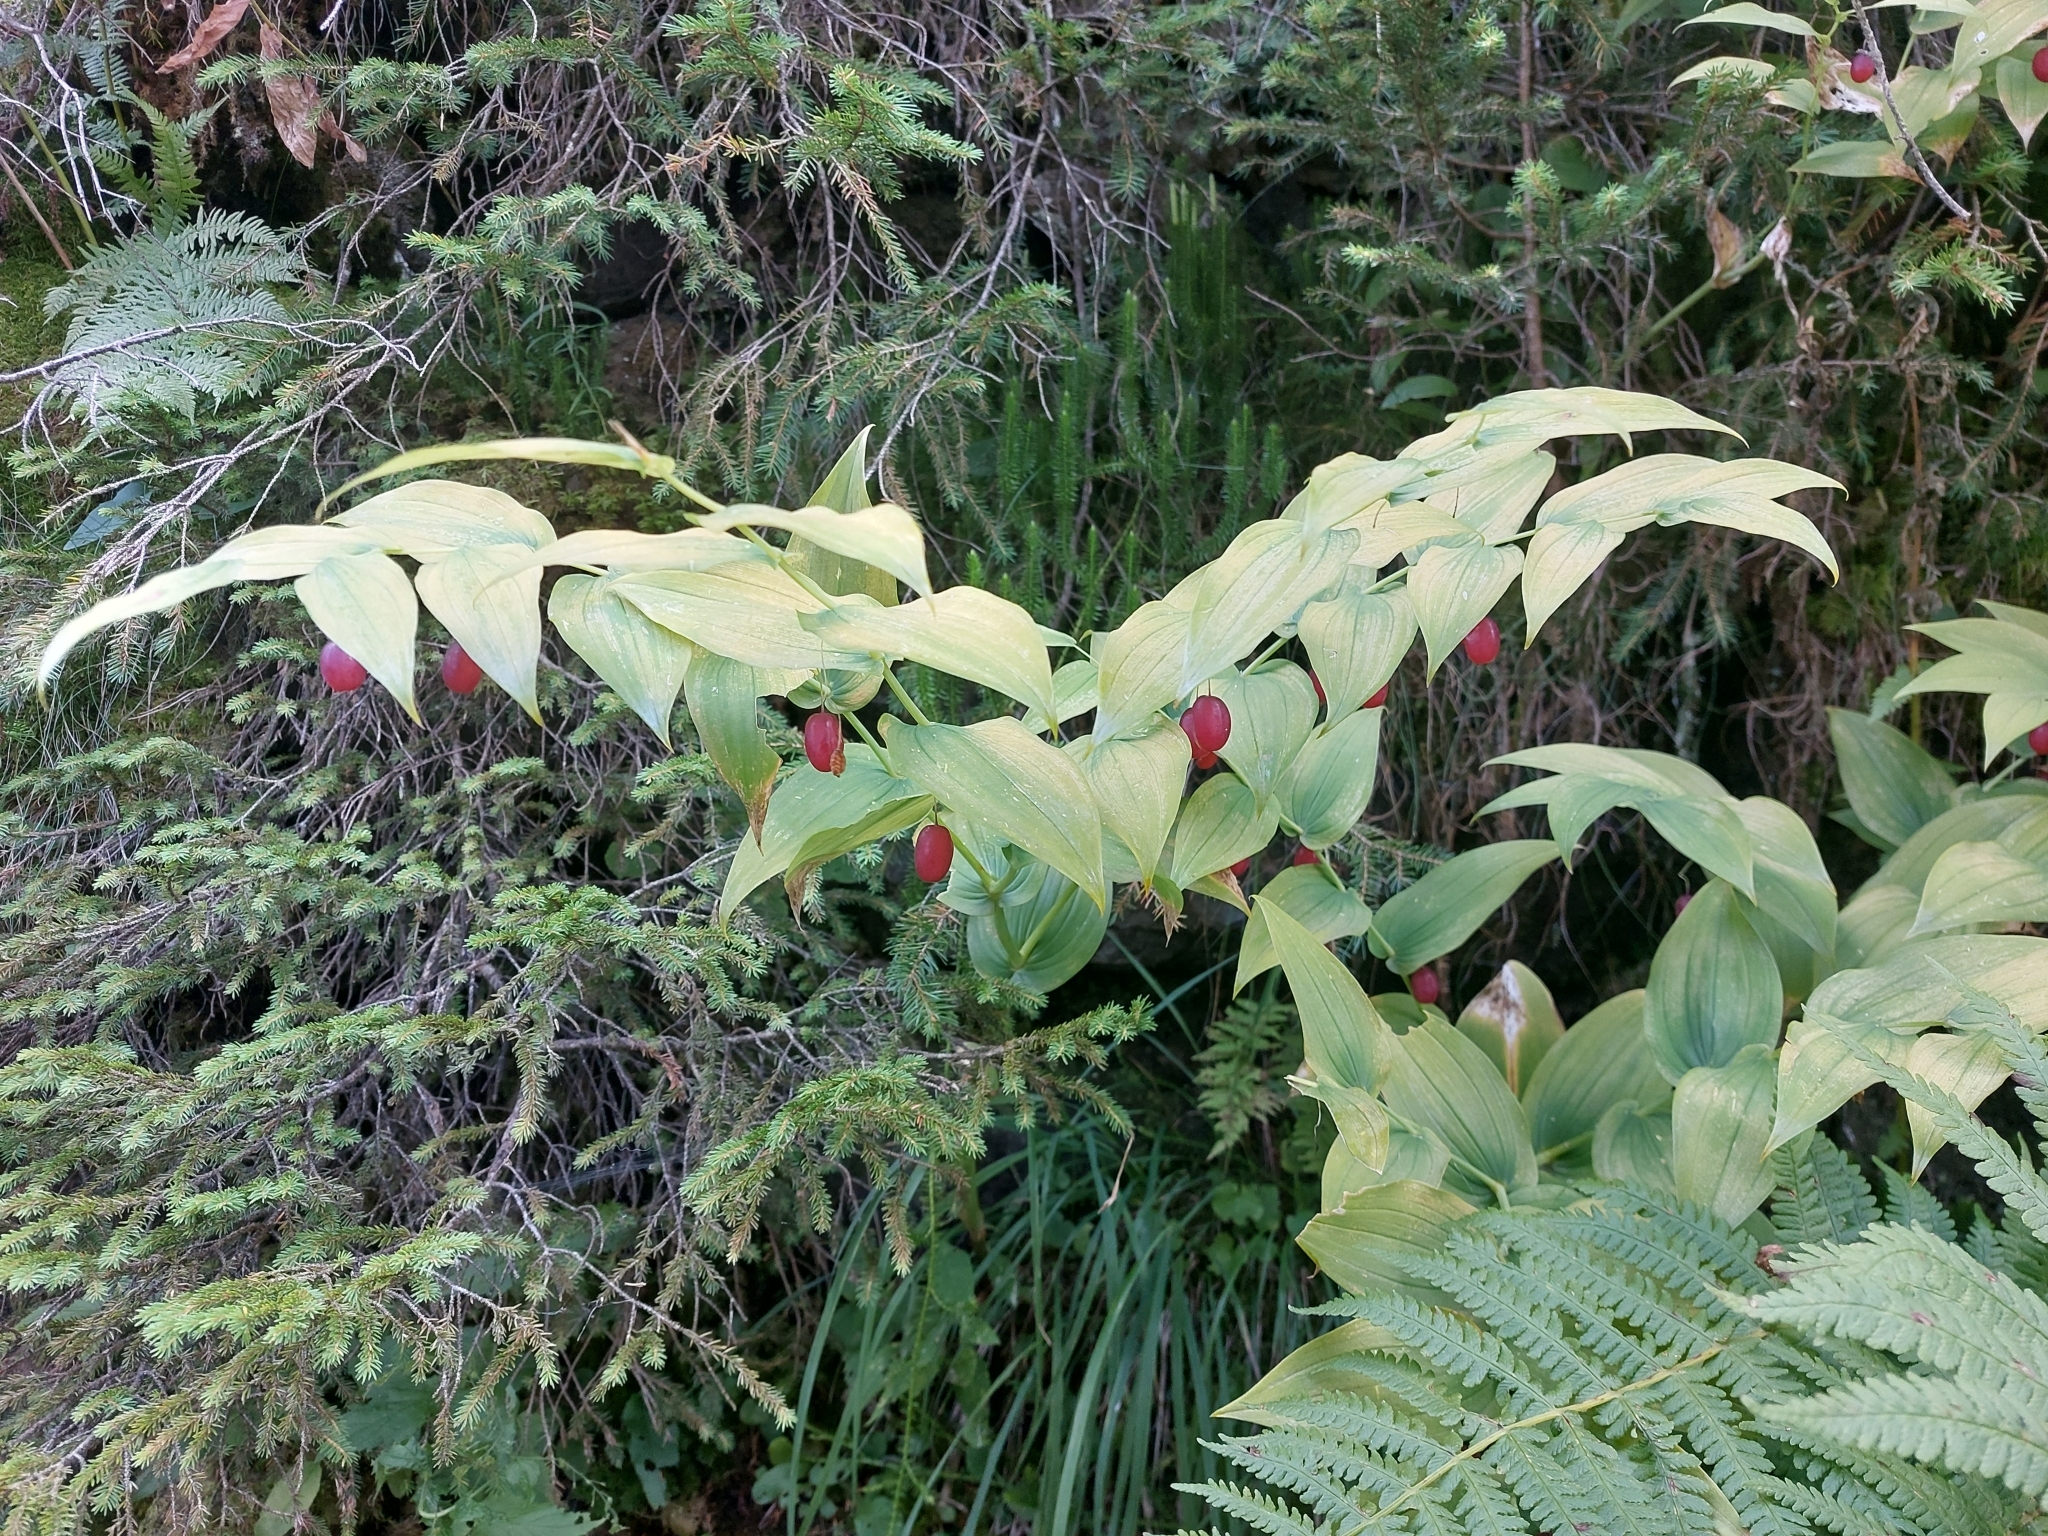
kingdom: Plantae
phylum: Tracheophyta
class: Liliopsida
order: Liliales
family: Liliaceae
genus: Streptopus
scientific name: Streptopus amplexifolius
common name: Clasp twisted stalk
